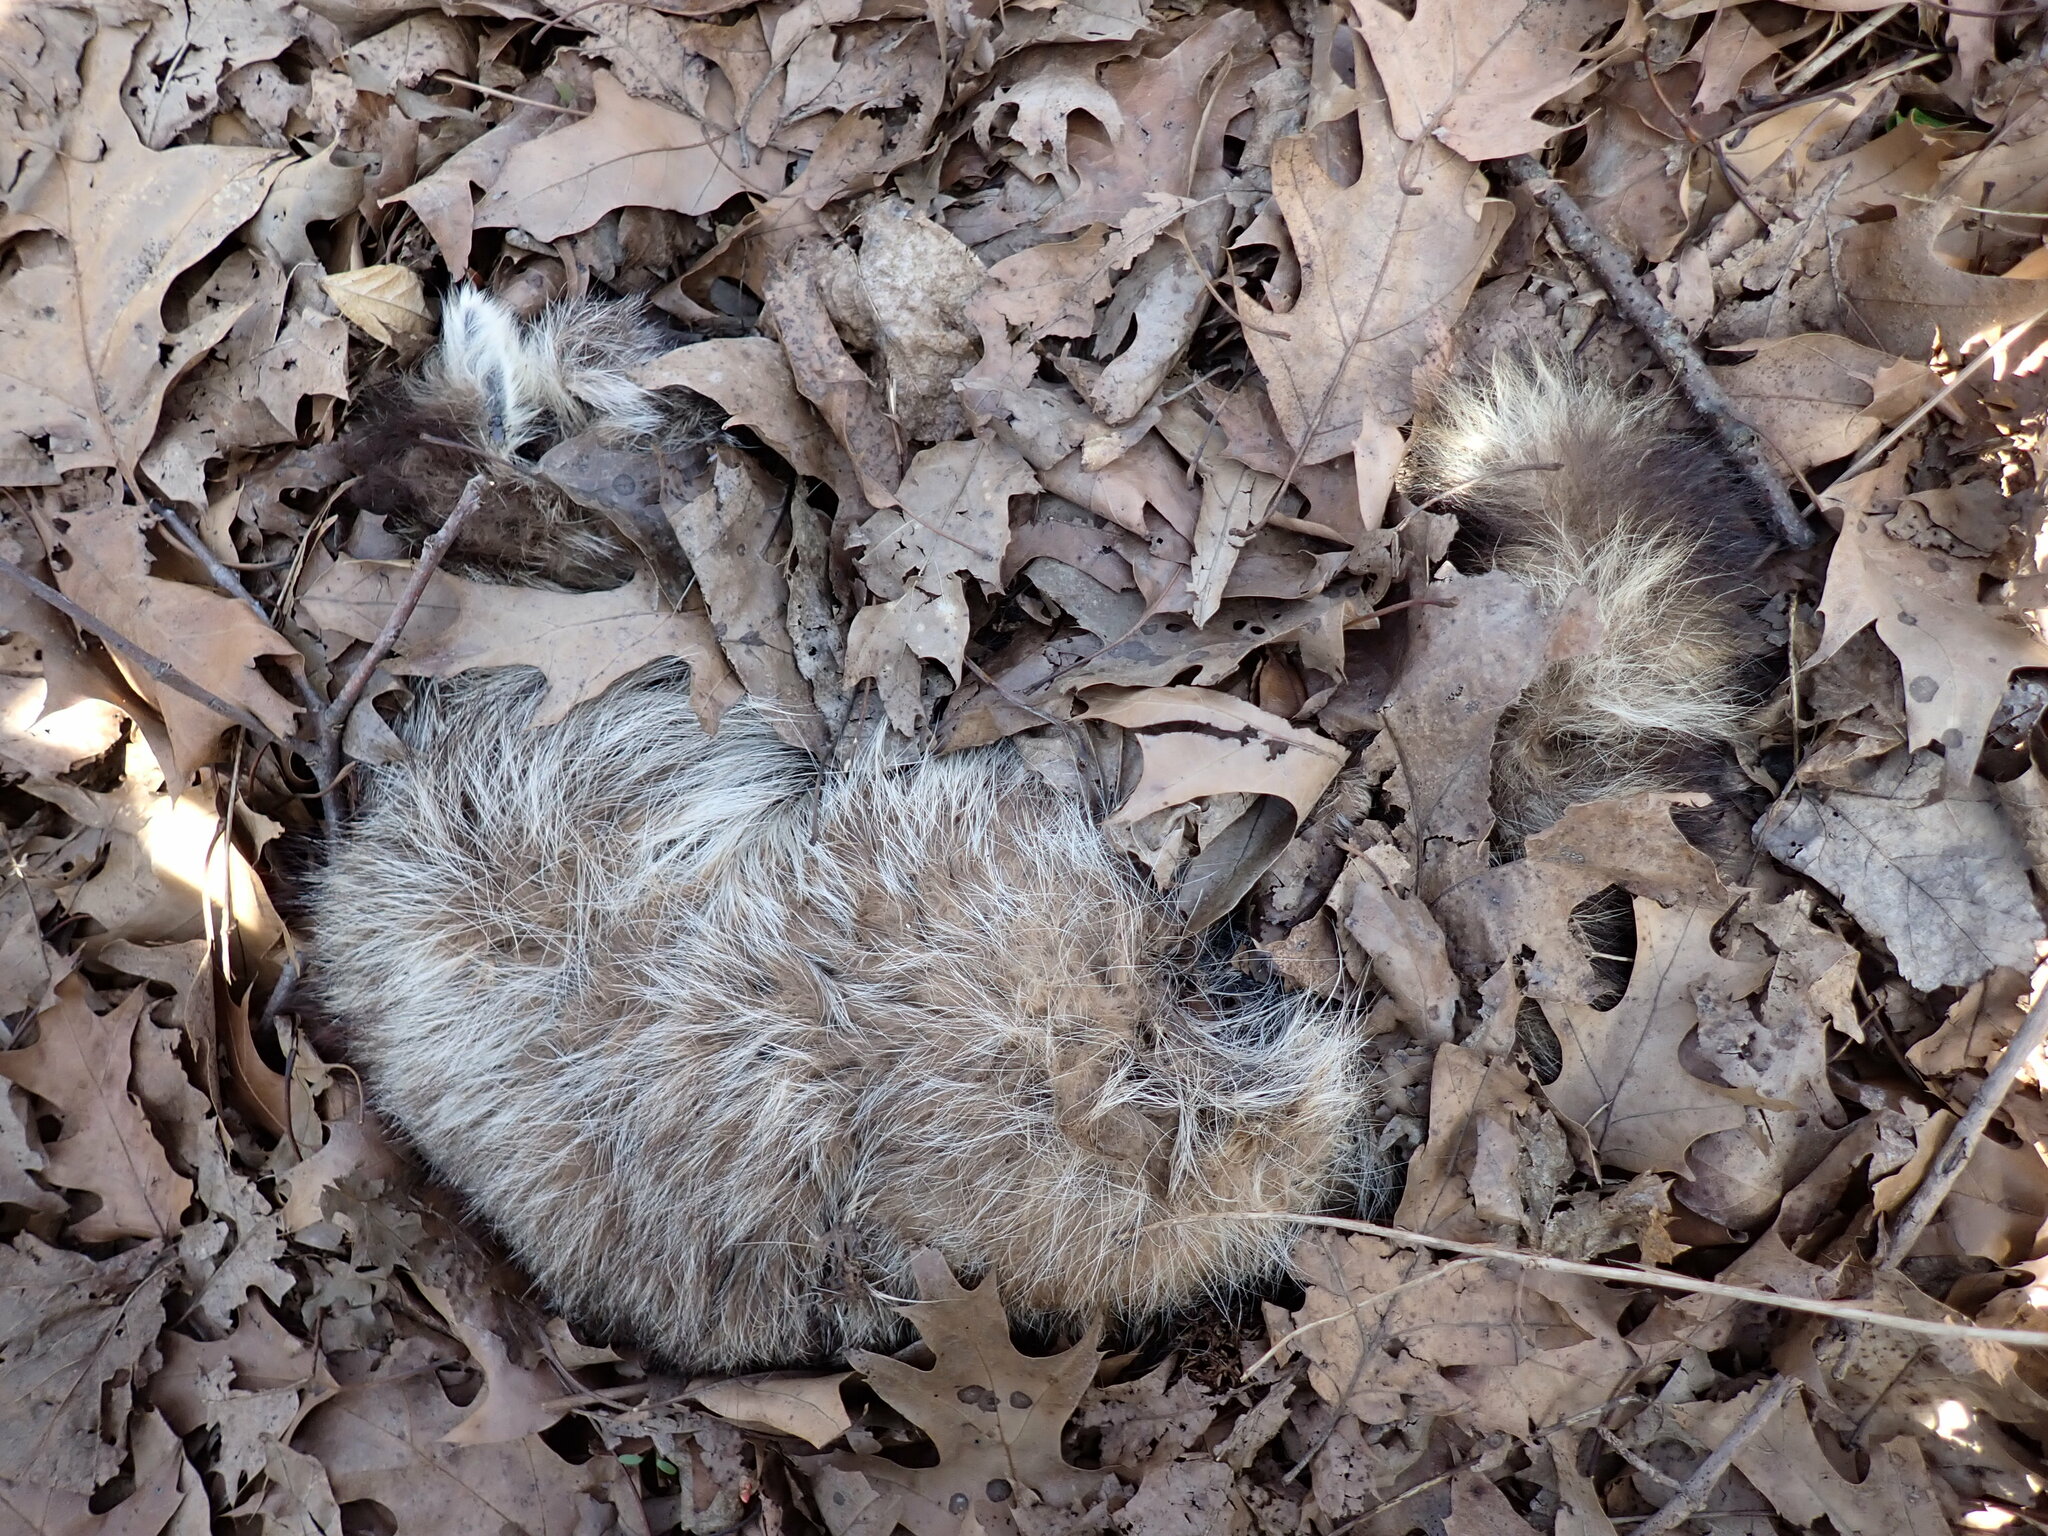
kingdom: Animalia
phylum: Chordata
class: Mammalia
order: Carnivora
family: Procyonidae
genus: Procyon
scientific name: Procyon lotor
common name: Raccoon
